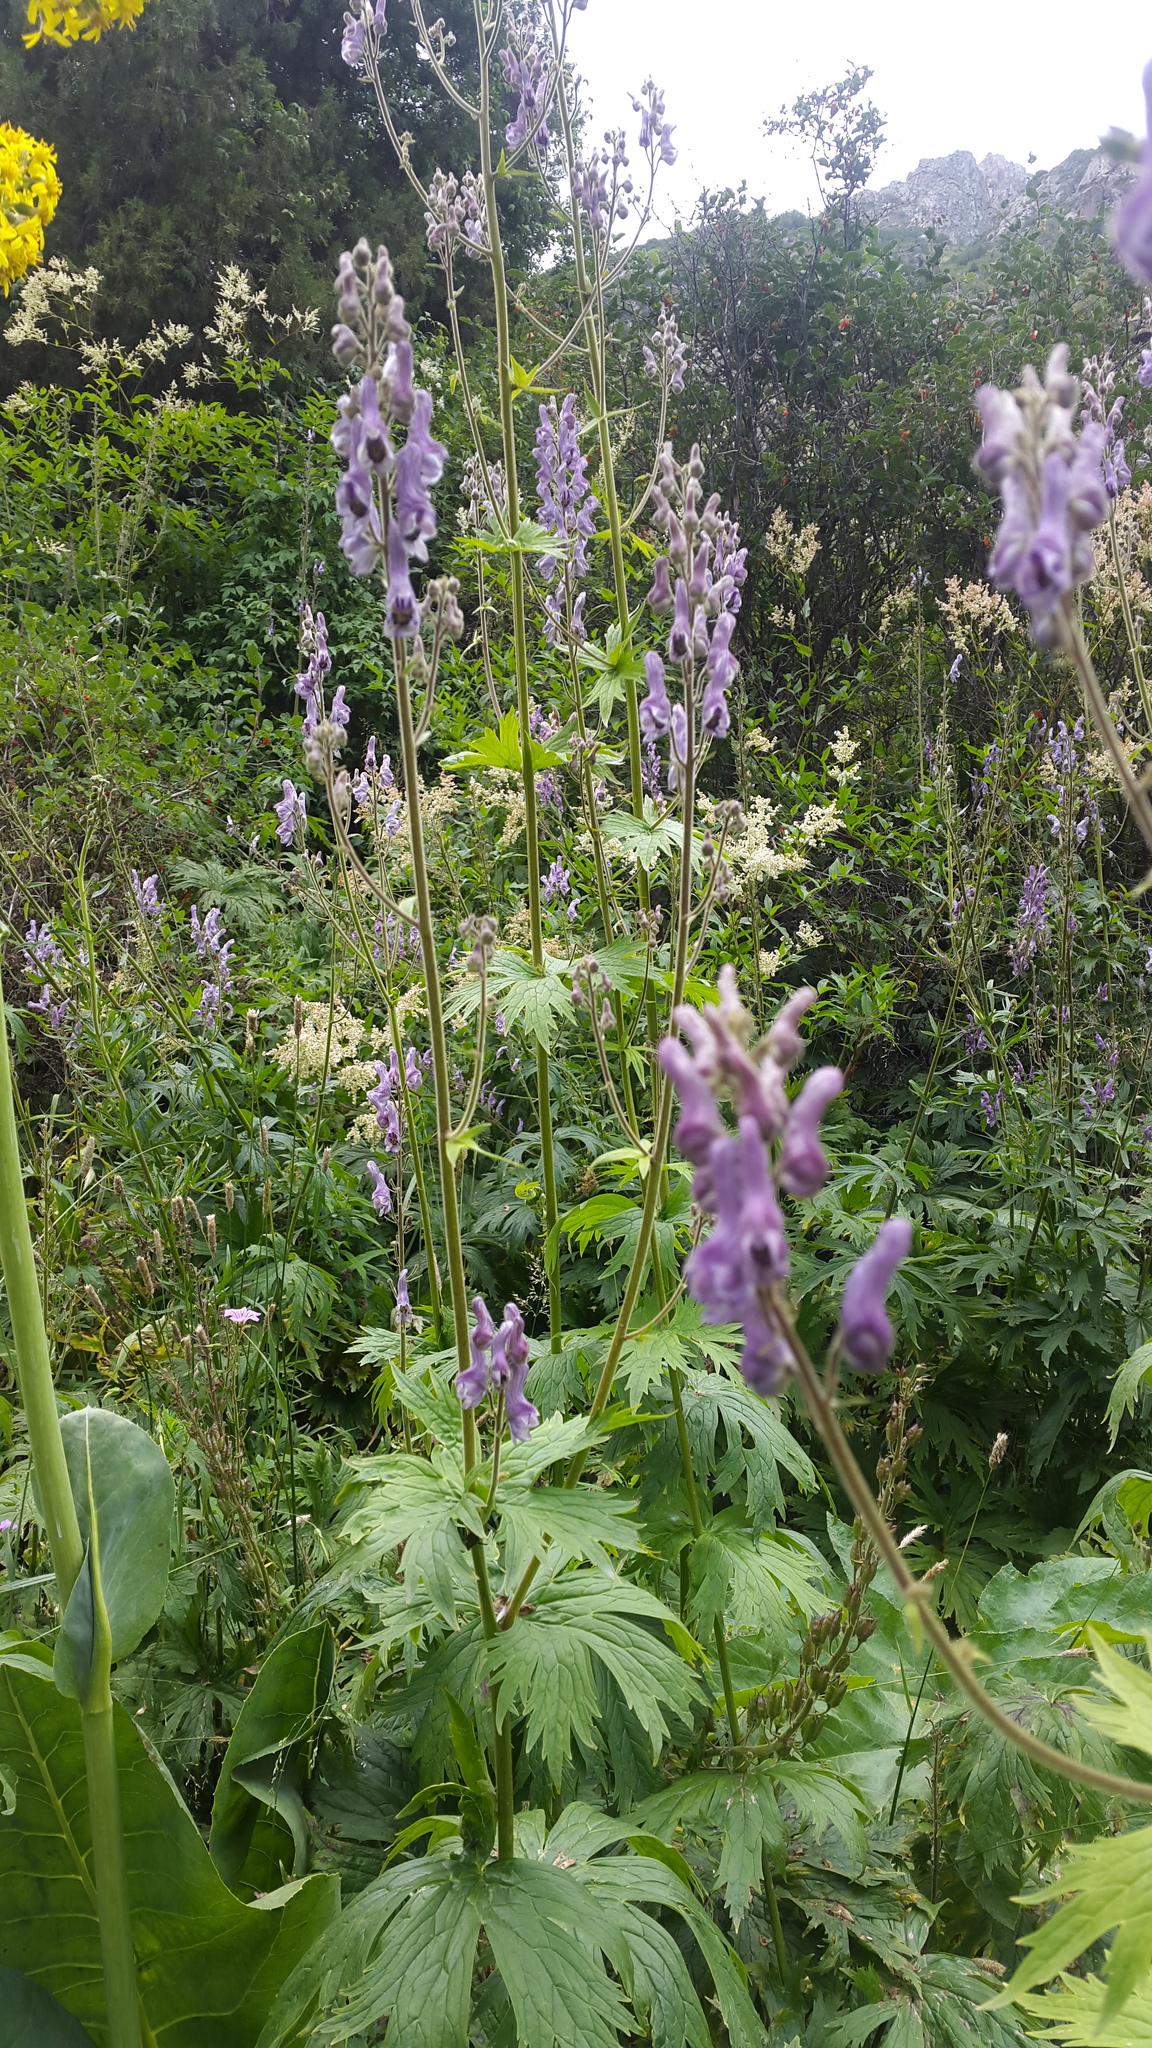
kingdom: Plantae
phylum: Tracheophyta
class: Magnoliopsida
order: Ranunculales
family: Ranunculaceae
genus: Aconitum
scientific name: Aconitum leucostomum
